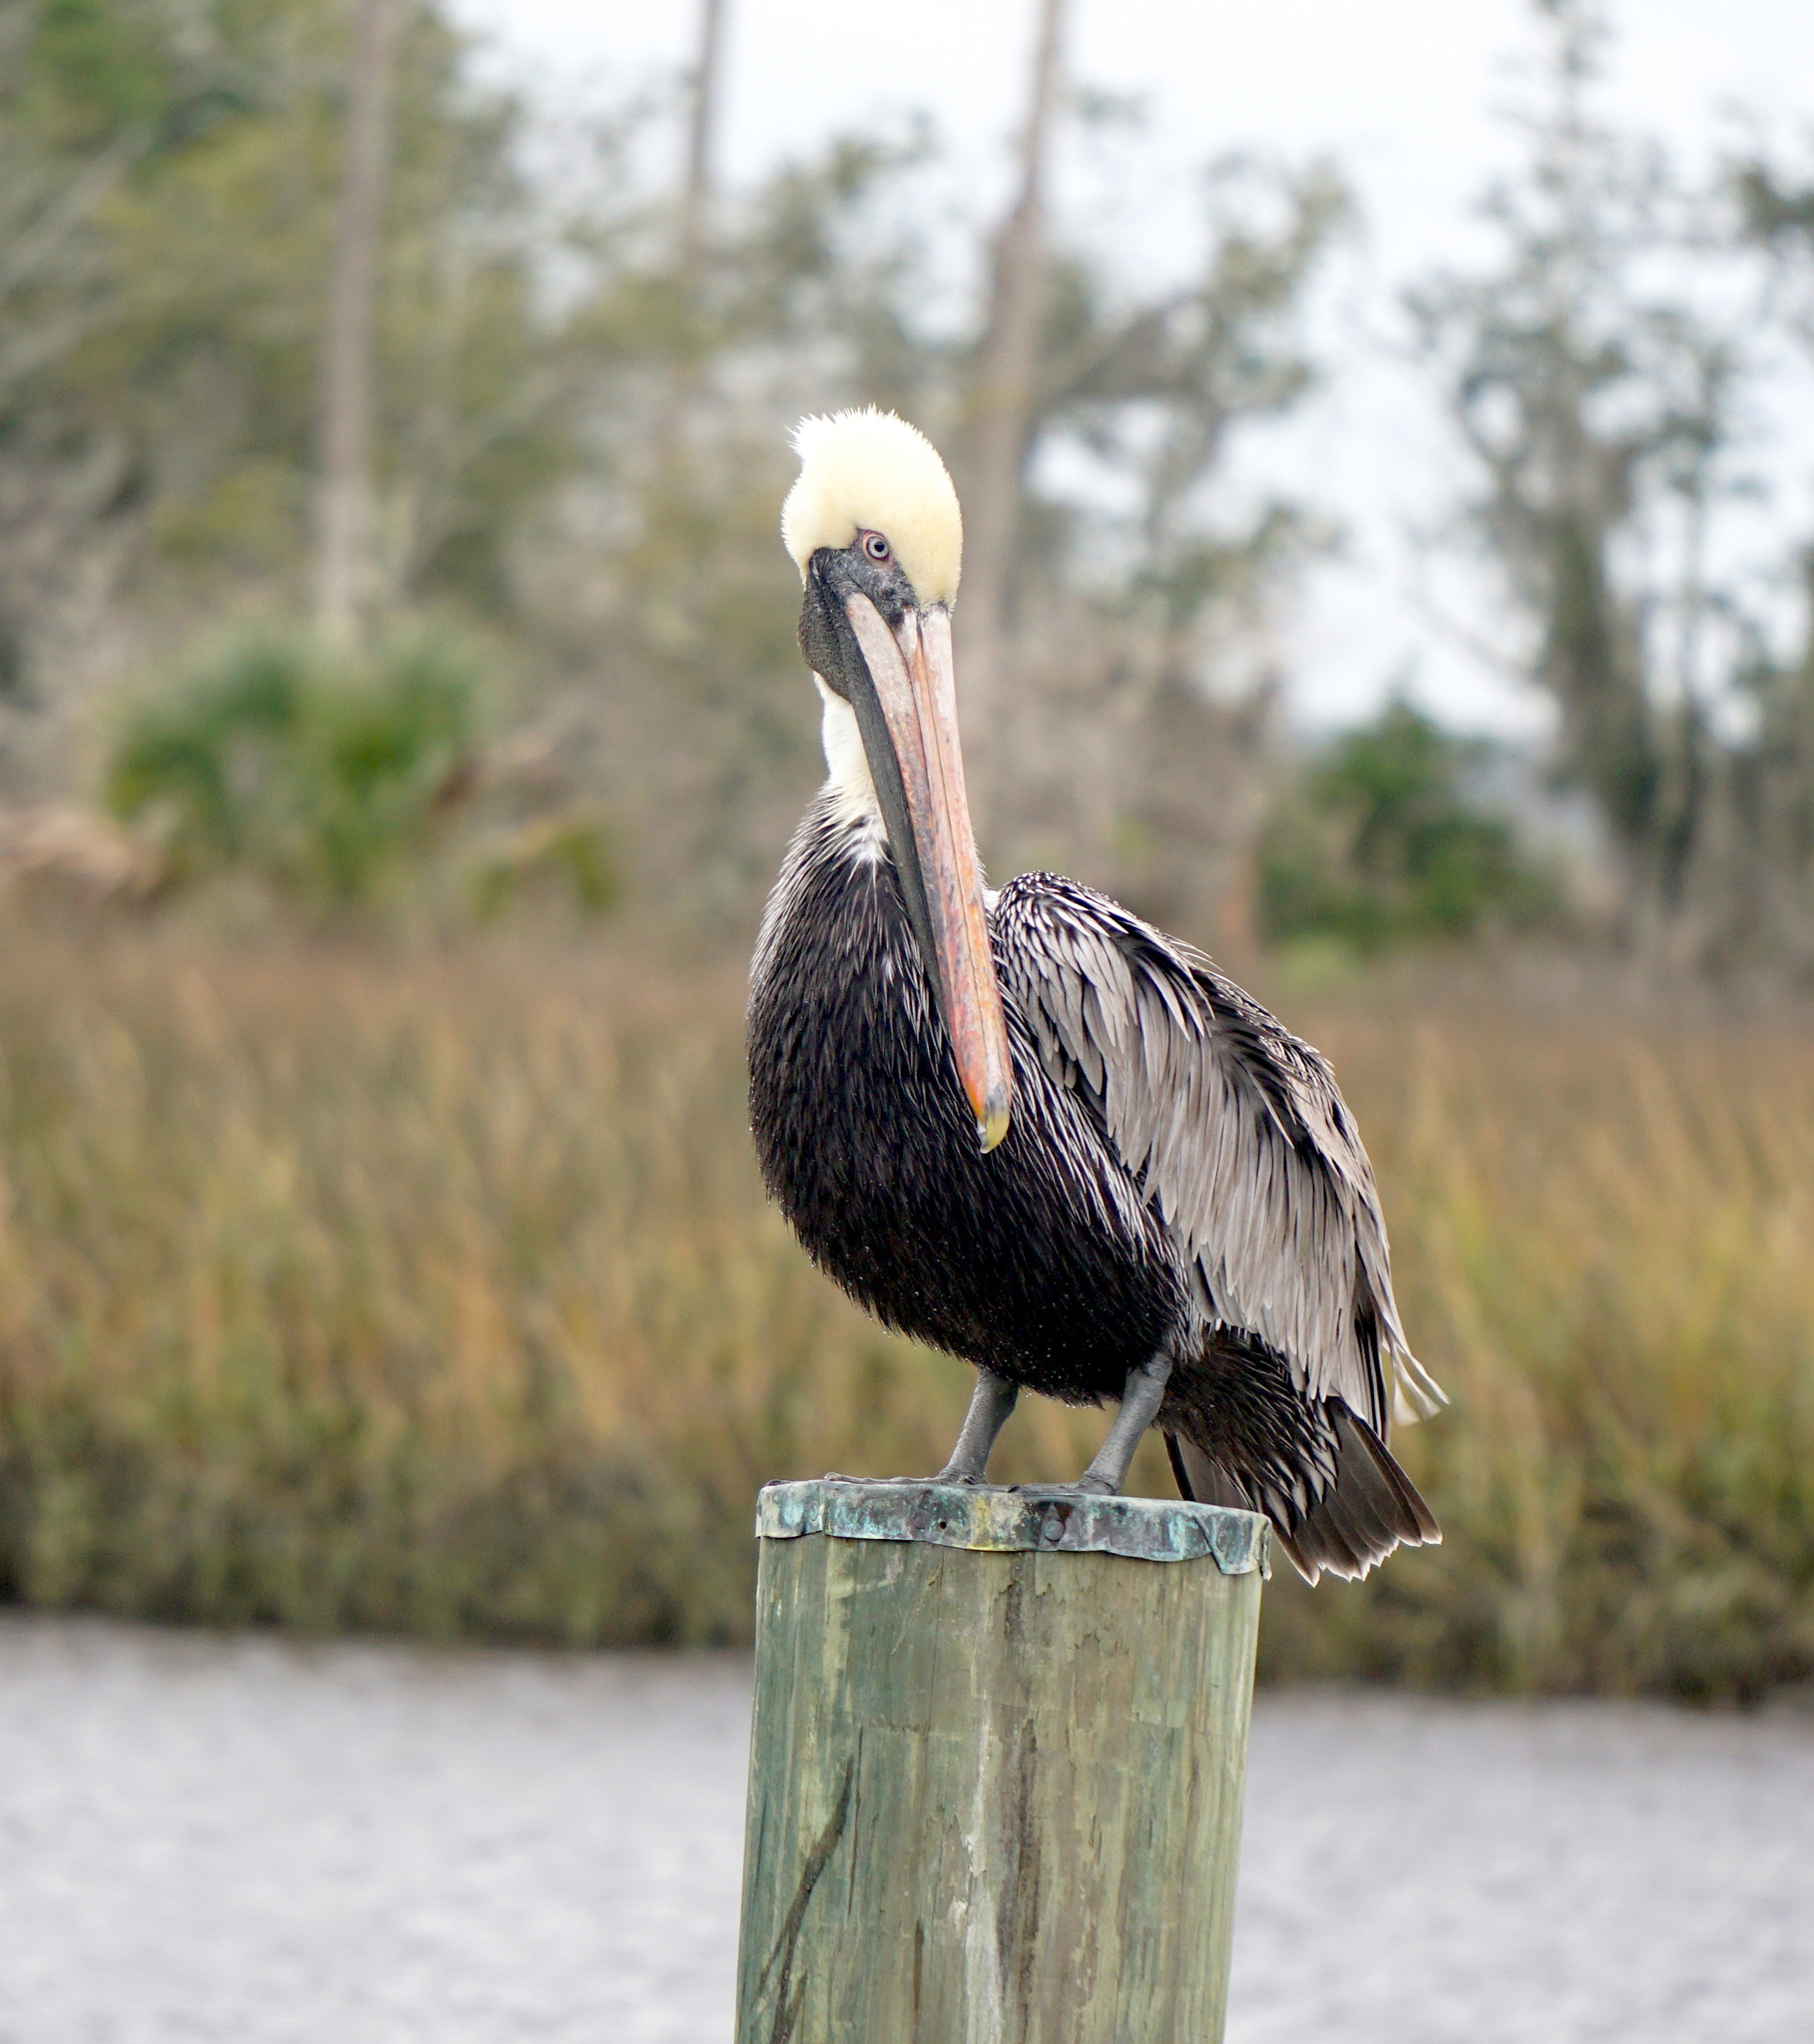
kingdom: Animalia
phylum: Chordata
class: Aves
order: Pelecaniformes
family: Pelecanidae
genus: Pelecanus
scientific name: Pelecanus occidentalis
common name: Brown pelican
